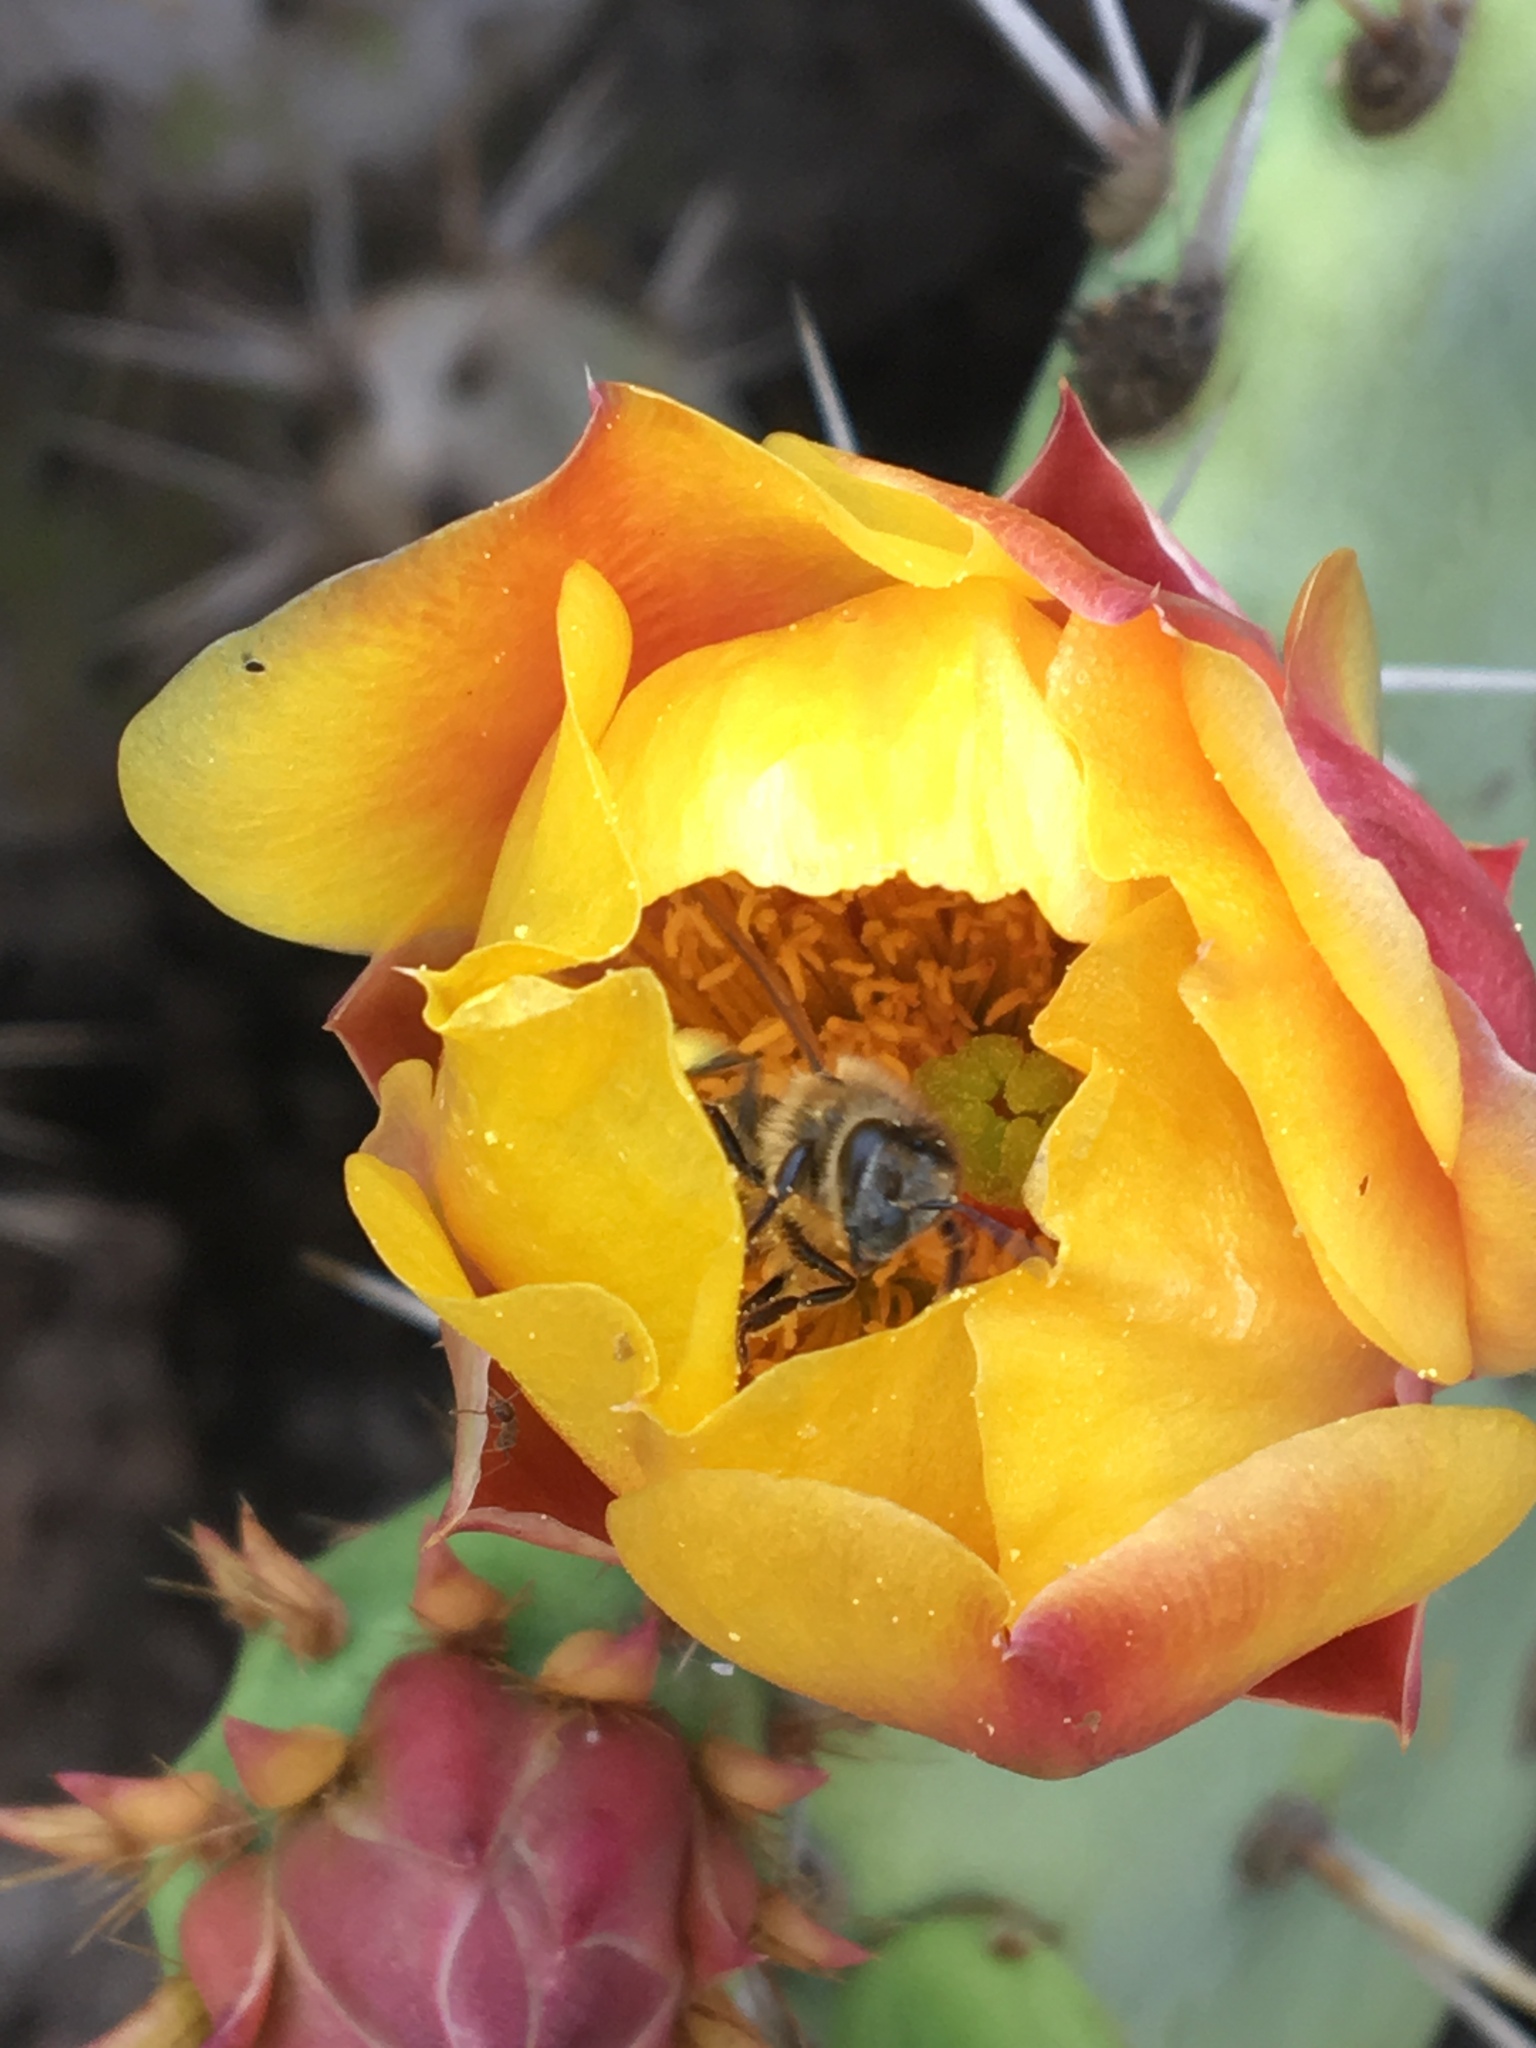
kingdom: Animalia
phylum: Arthropoda
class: Insecta
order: Hymenoptera
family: Apidae
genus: Apis
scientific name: Apis mellifera
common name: Honey bee
